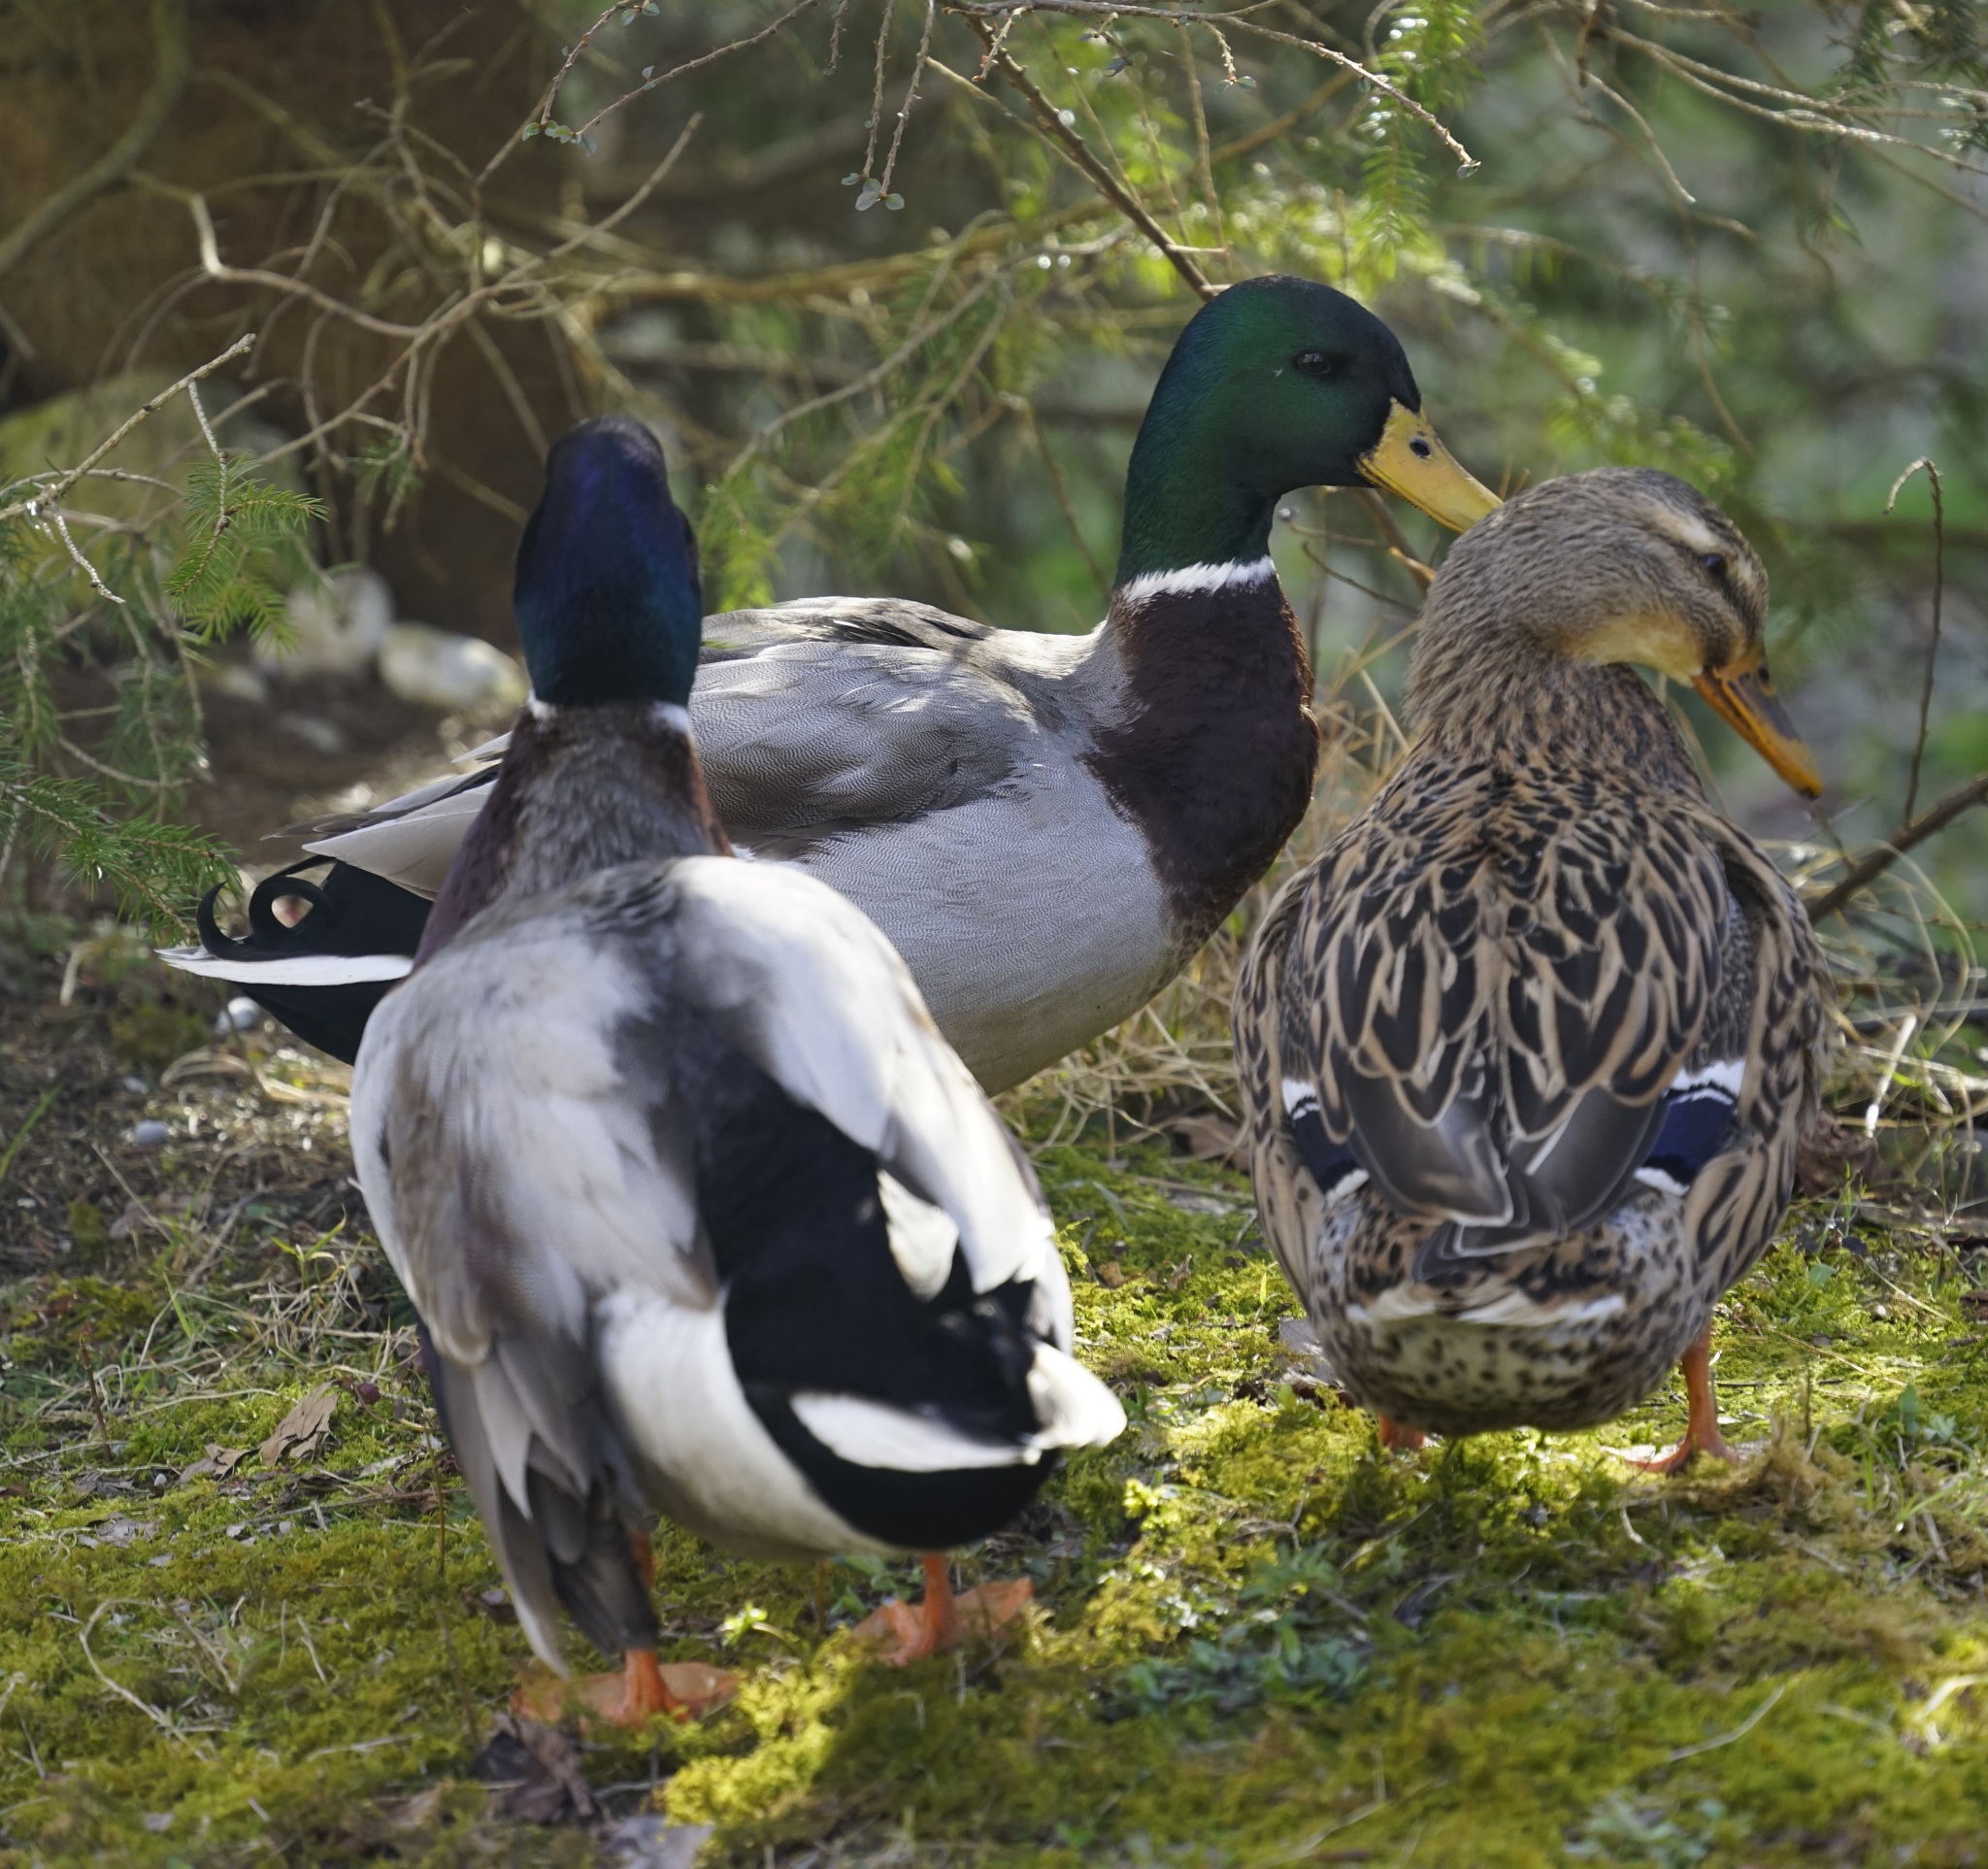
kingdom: Animalia
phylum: Chordata
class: Aves
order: Anseriformes
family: Anatidae
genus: Anas
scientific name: Anas platyrhynchos
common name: Mallard
